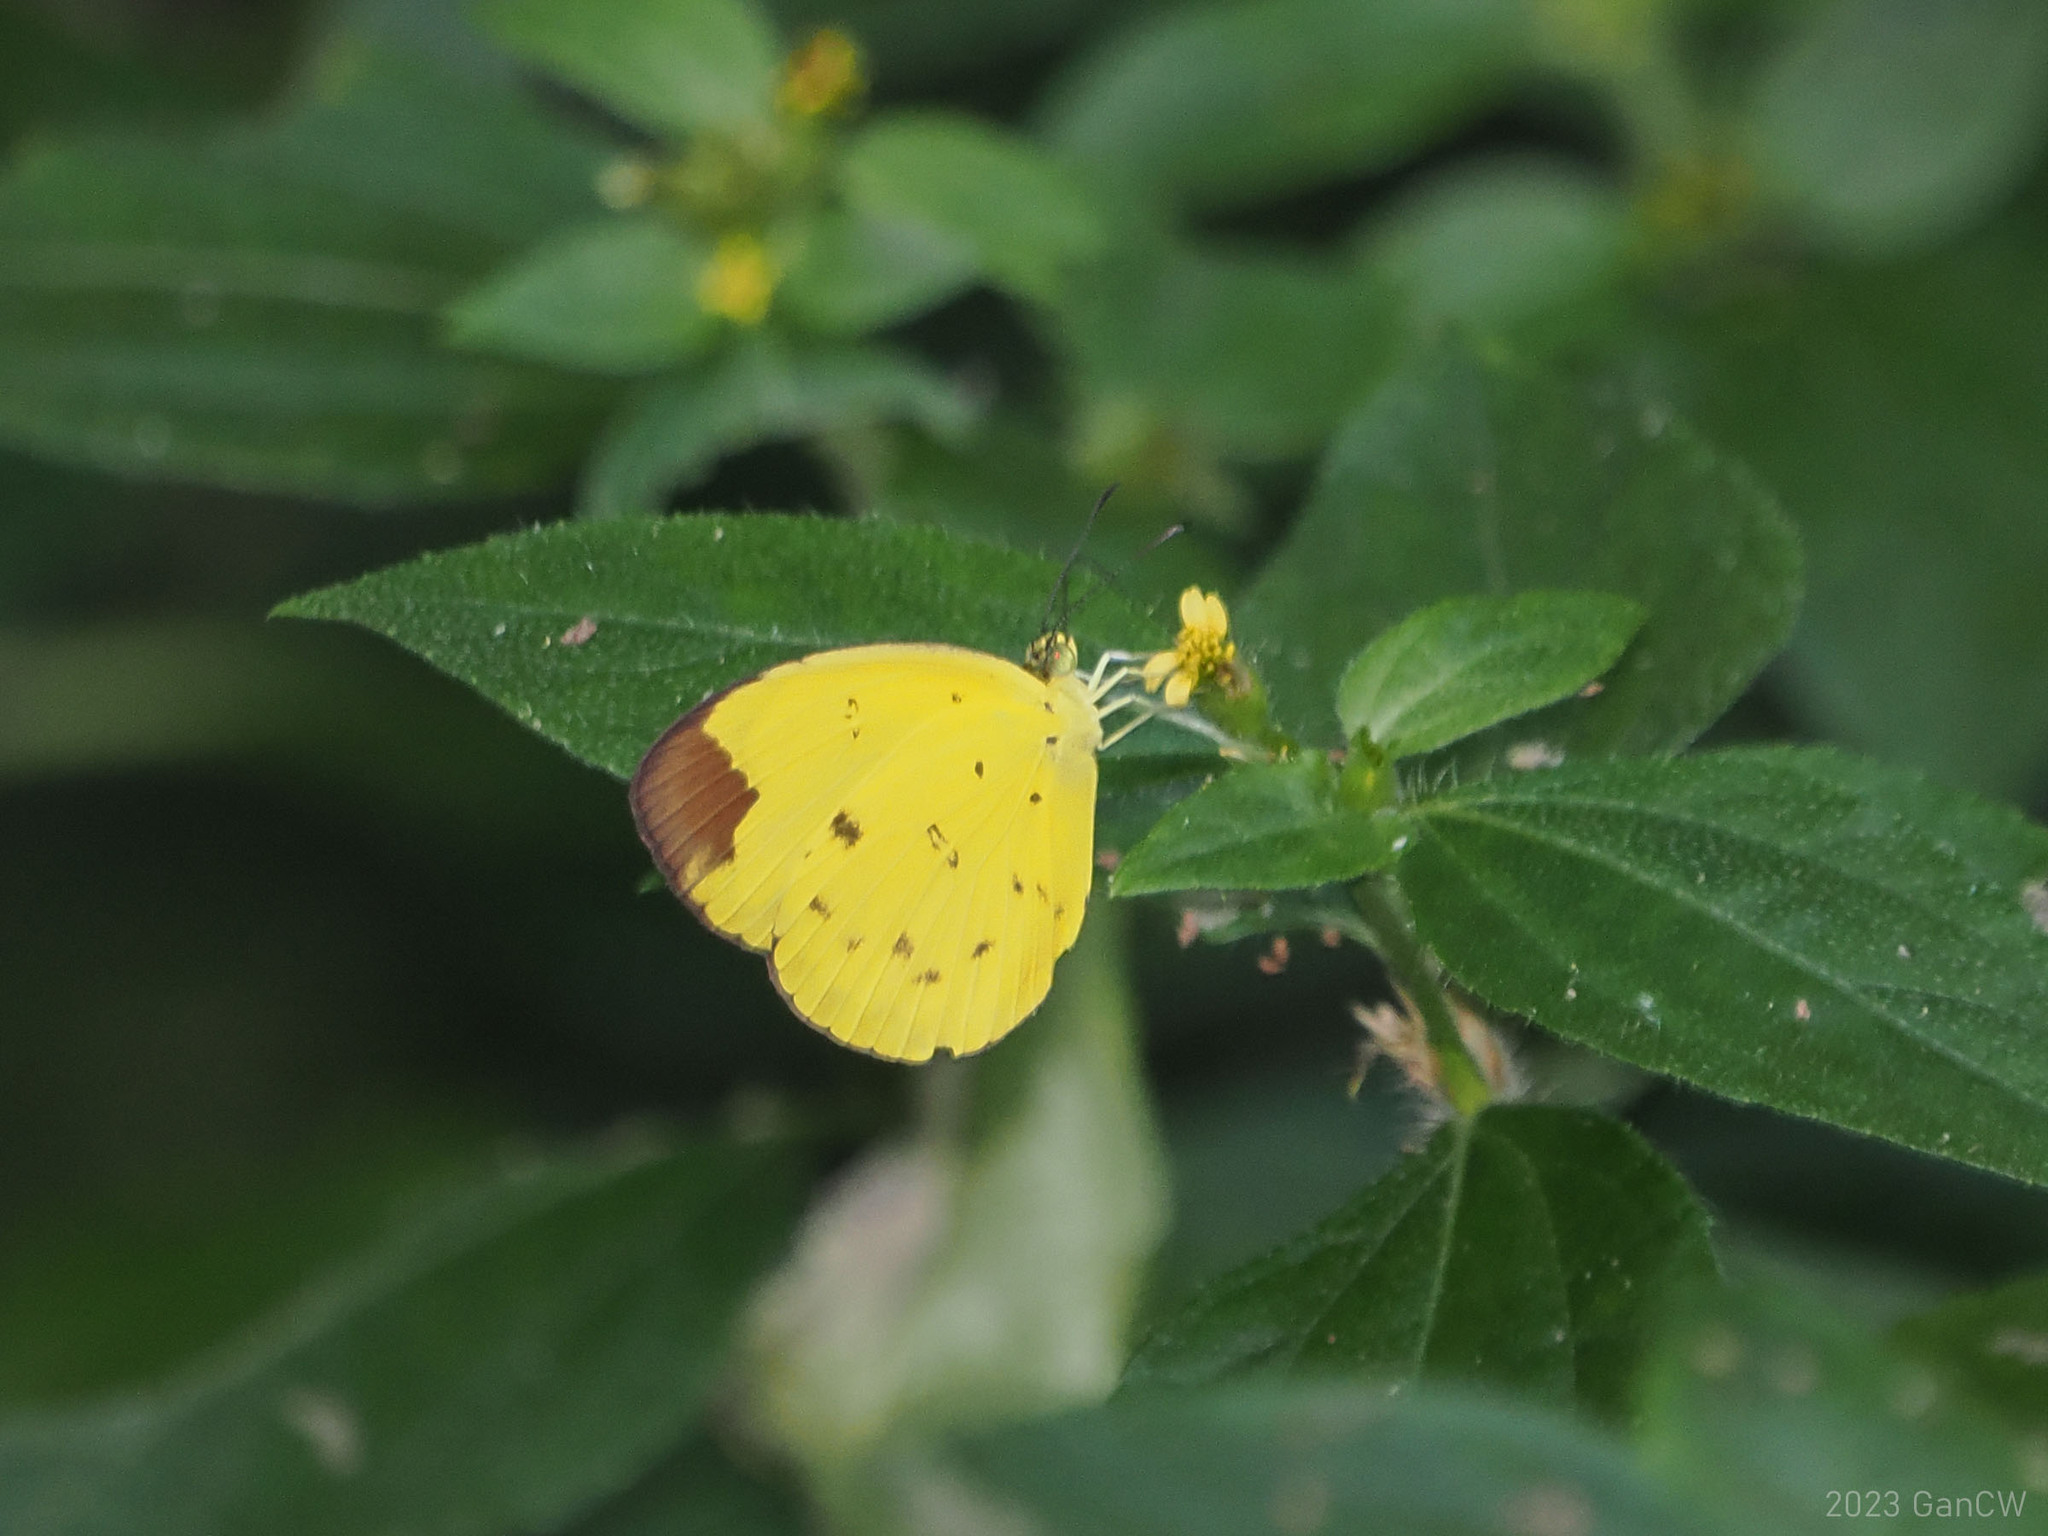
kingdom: Animalia
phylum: Arthropoda
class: Insecta
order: Lepidoptera
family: Pieridae
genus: Eurema
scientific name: Eurema sarilata
